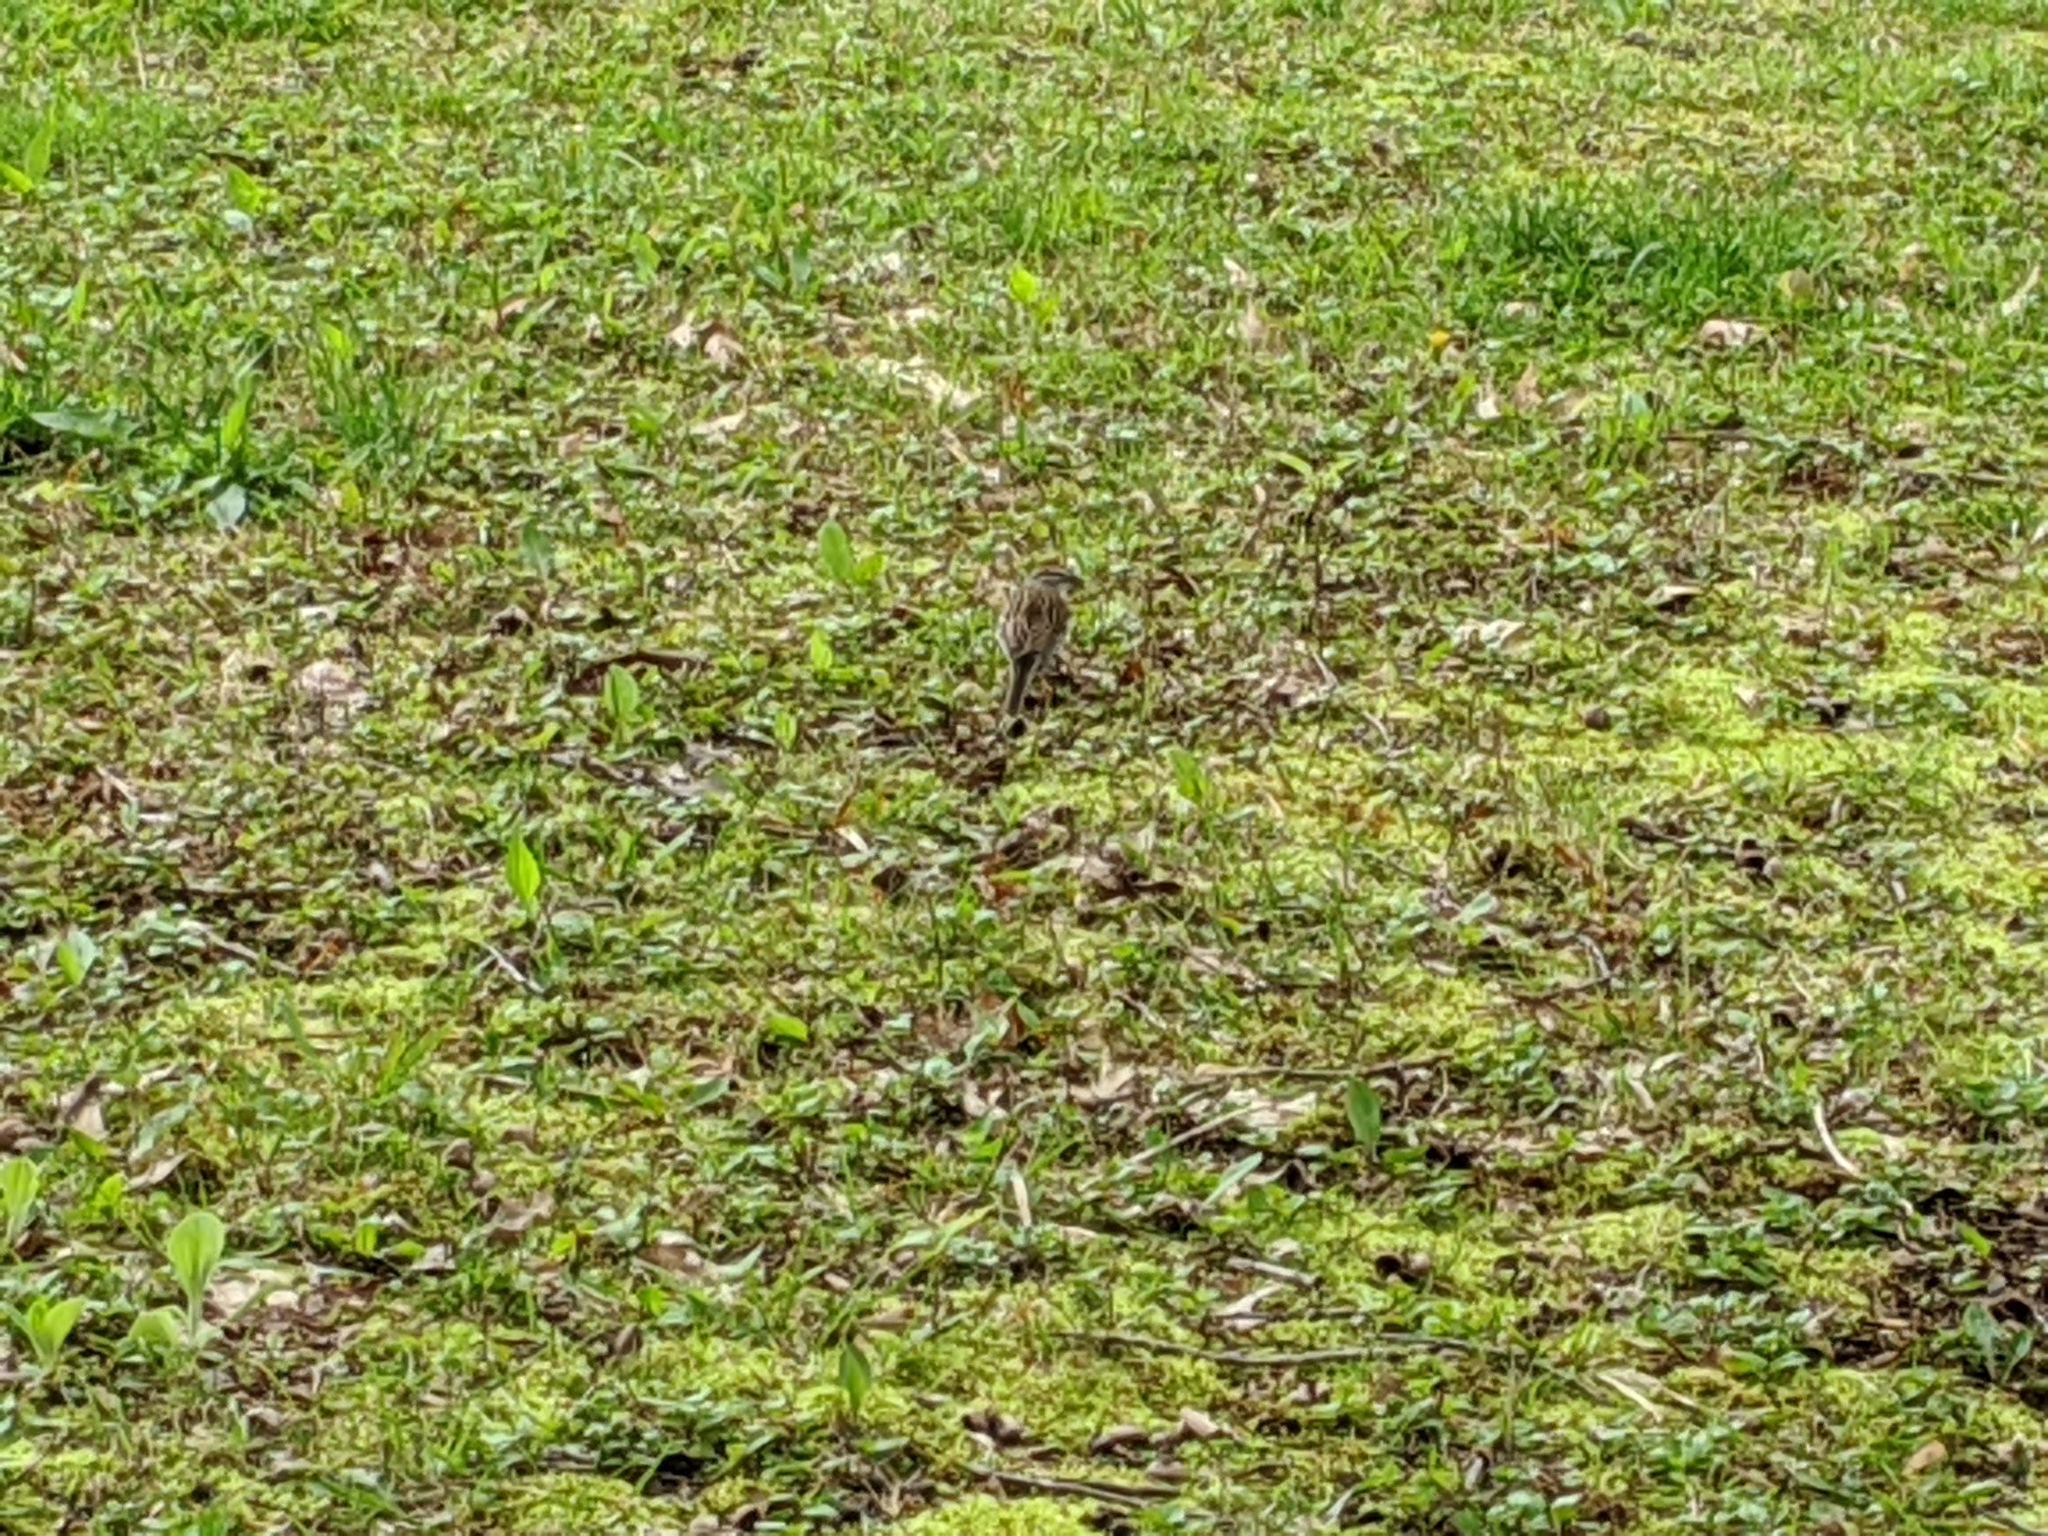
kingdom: Animalia
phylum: Chordata
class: Aves
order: Passeriformes
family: Passerellidae
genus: Spizella
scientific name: Spizella passerina
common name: Chipping sparrow
